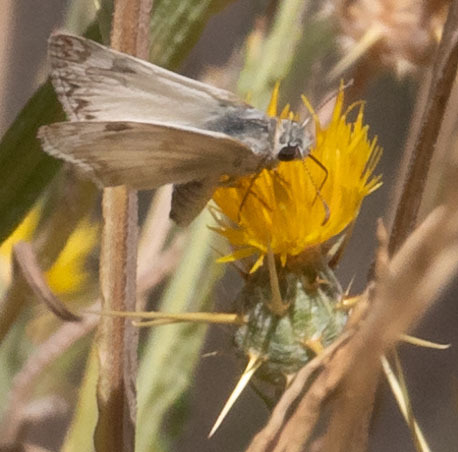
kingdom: Animalia
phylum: Arthropoda
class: Insecta
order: Lepidoptera
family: Hesperiidae
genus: Heliopetes
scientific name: Heliopetes ericetorum
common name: Northern white-skipper
